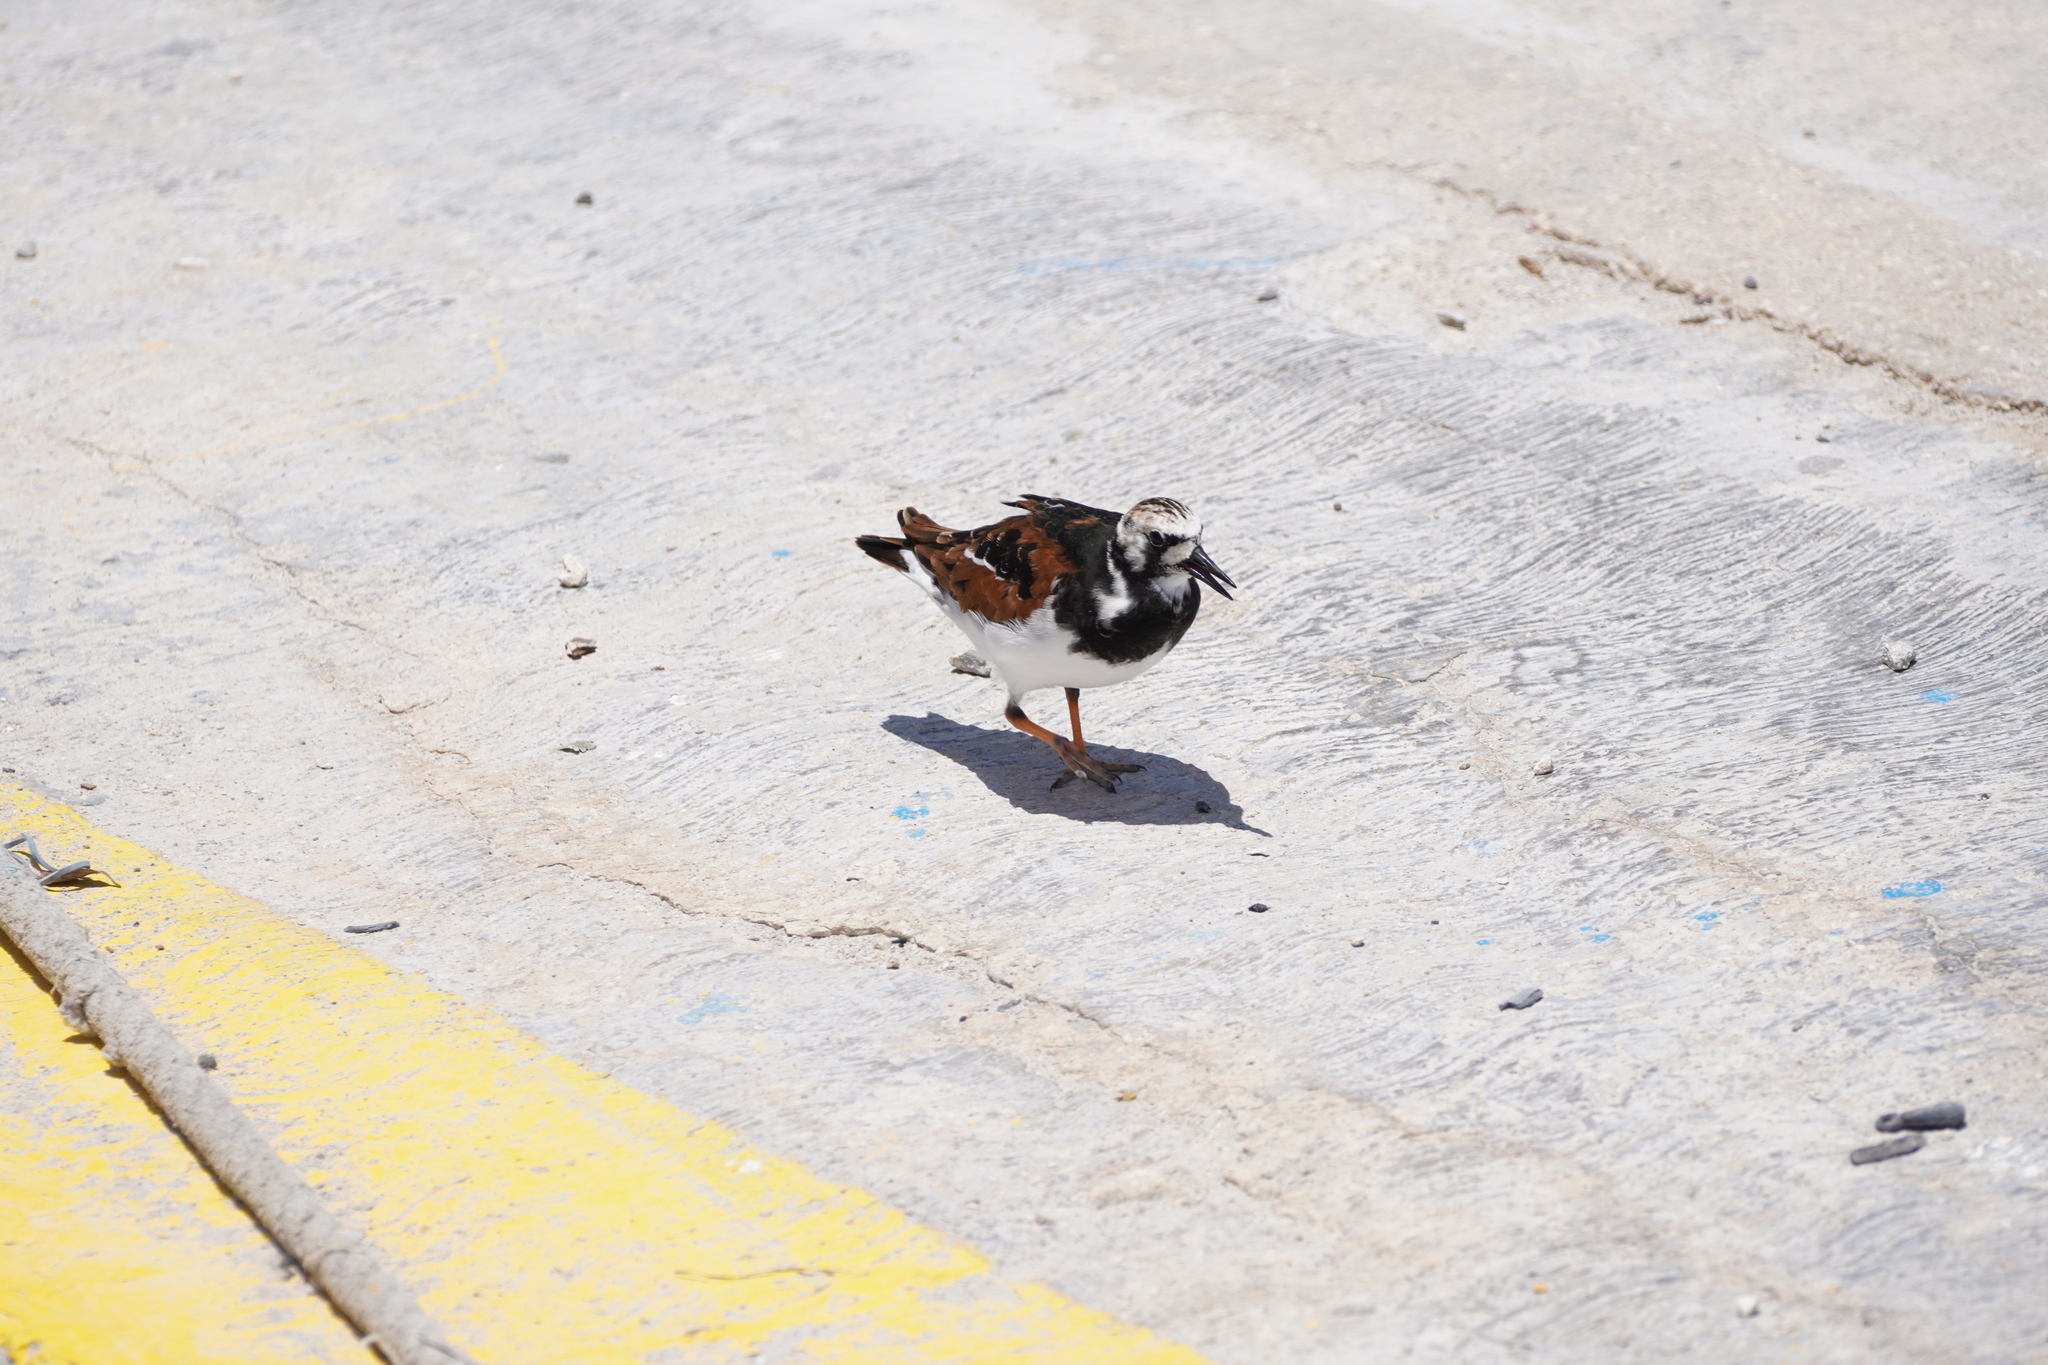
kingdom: Animalia
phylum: Chordata
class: Aves
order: Charadriiformes
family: Scolopacidae
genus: Arenaria
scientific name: Arenaria interpres
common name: Ruddy turnstone
